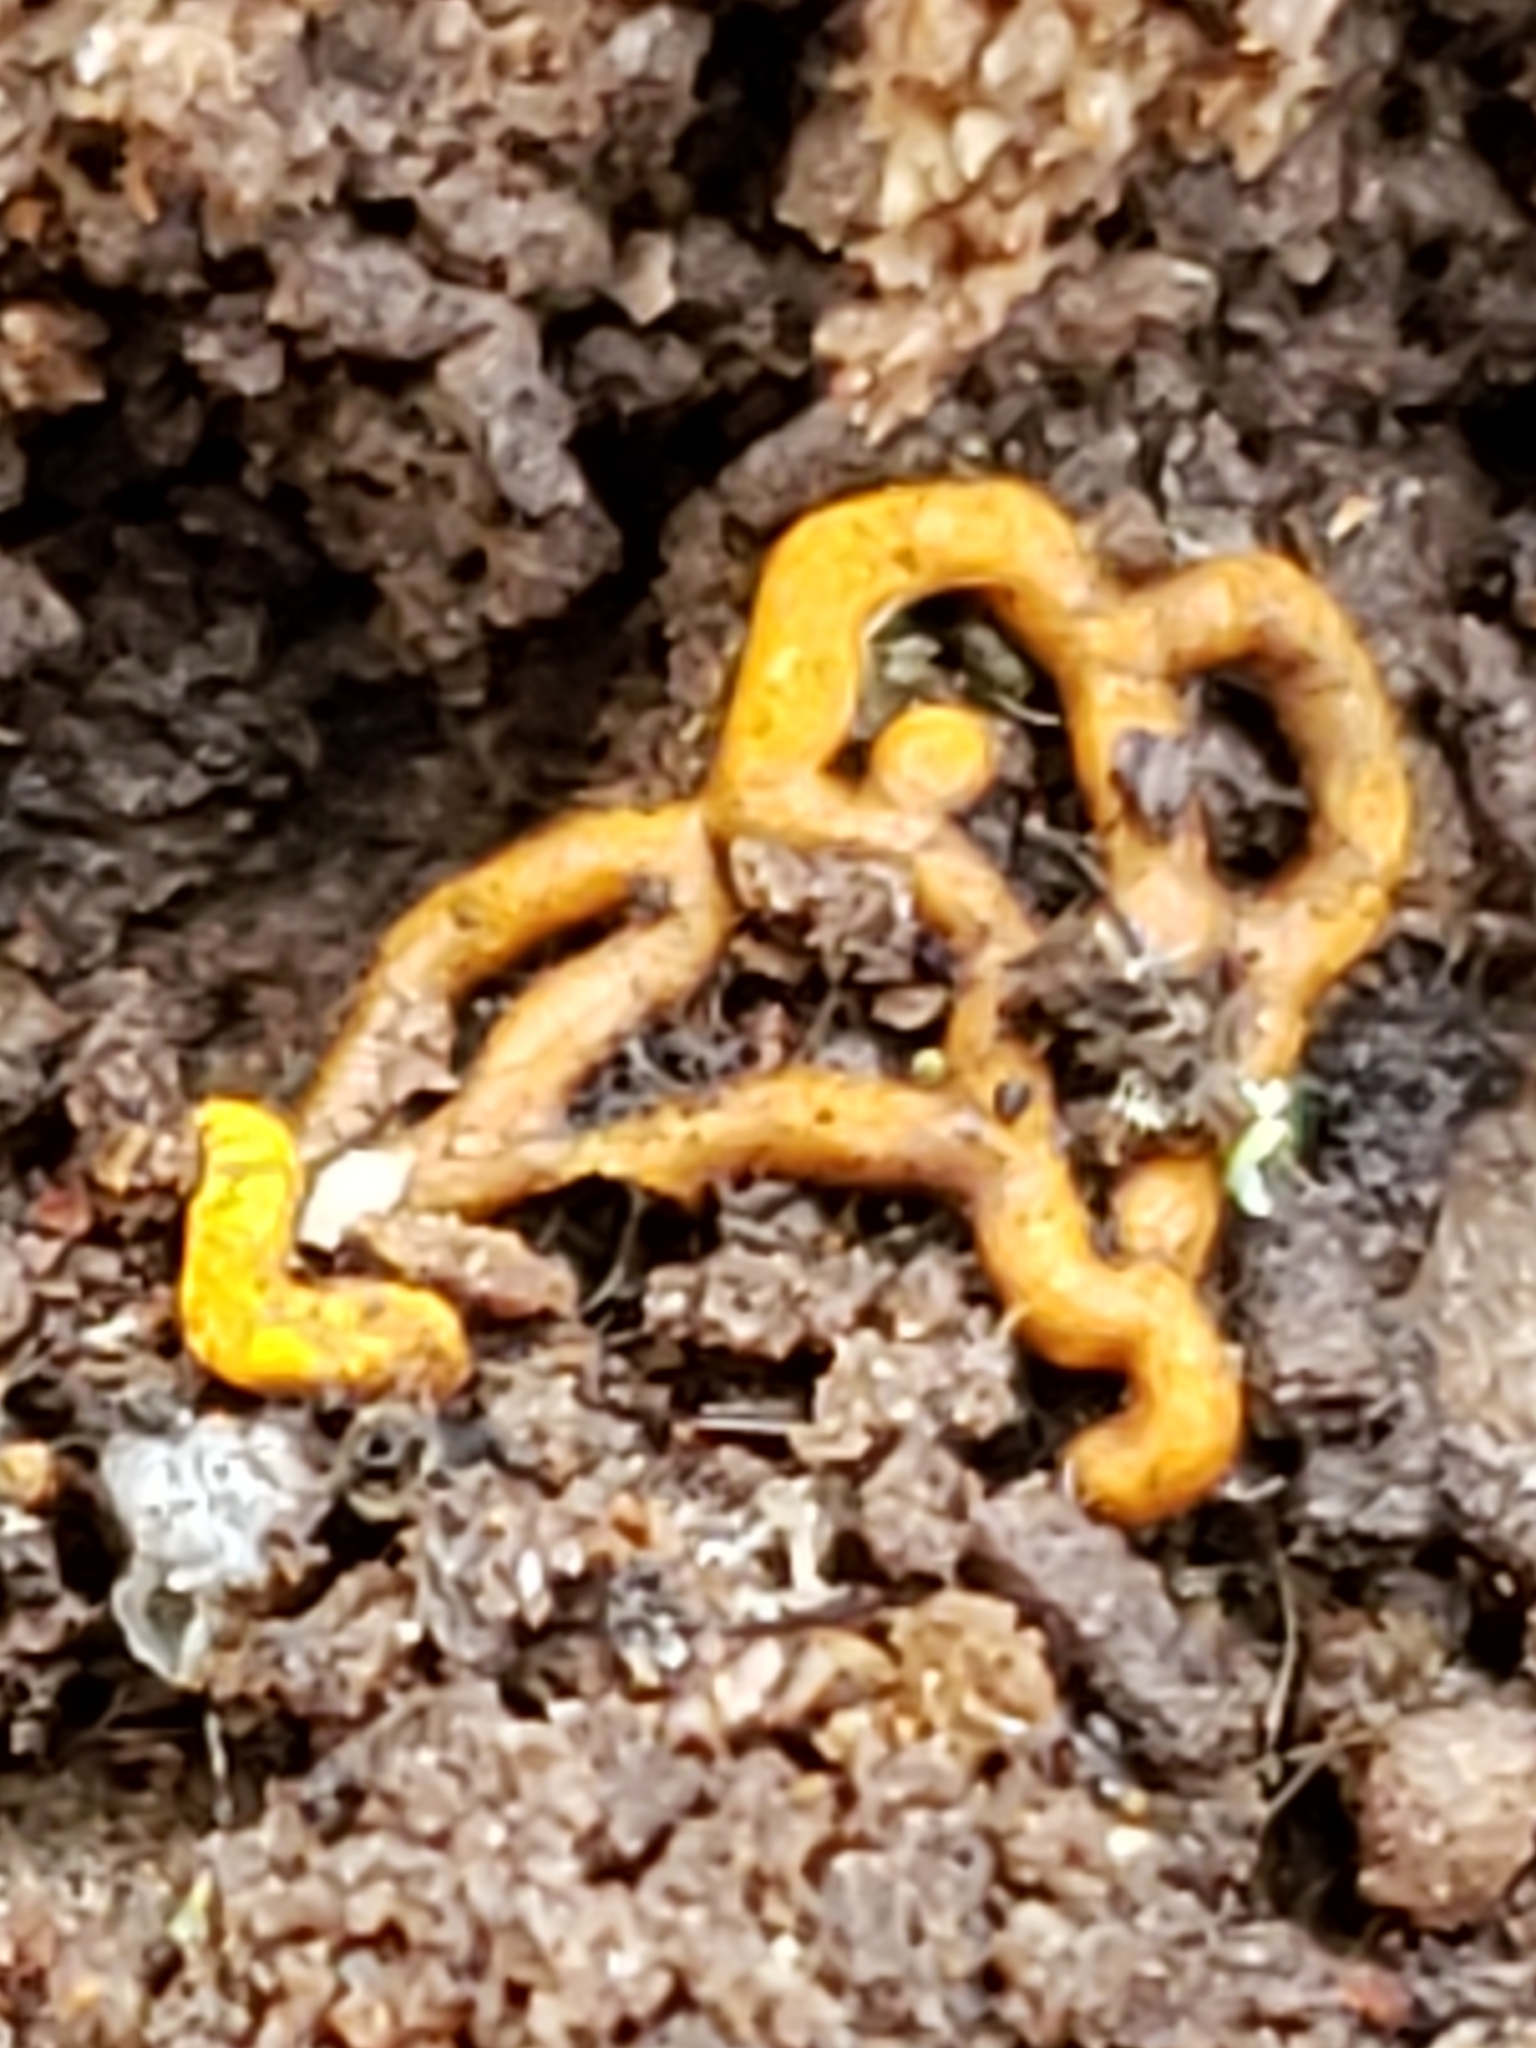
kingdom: Protozoa
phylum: Mycetozoa
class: Myxomycetes
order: Trichiales
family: Arcyriaceae
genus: Hemitrichia
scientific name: Hemitrichia serpula
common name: Pretzel slime mold
